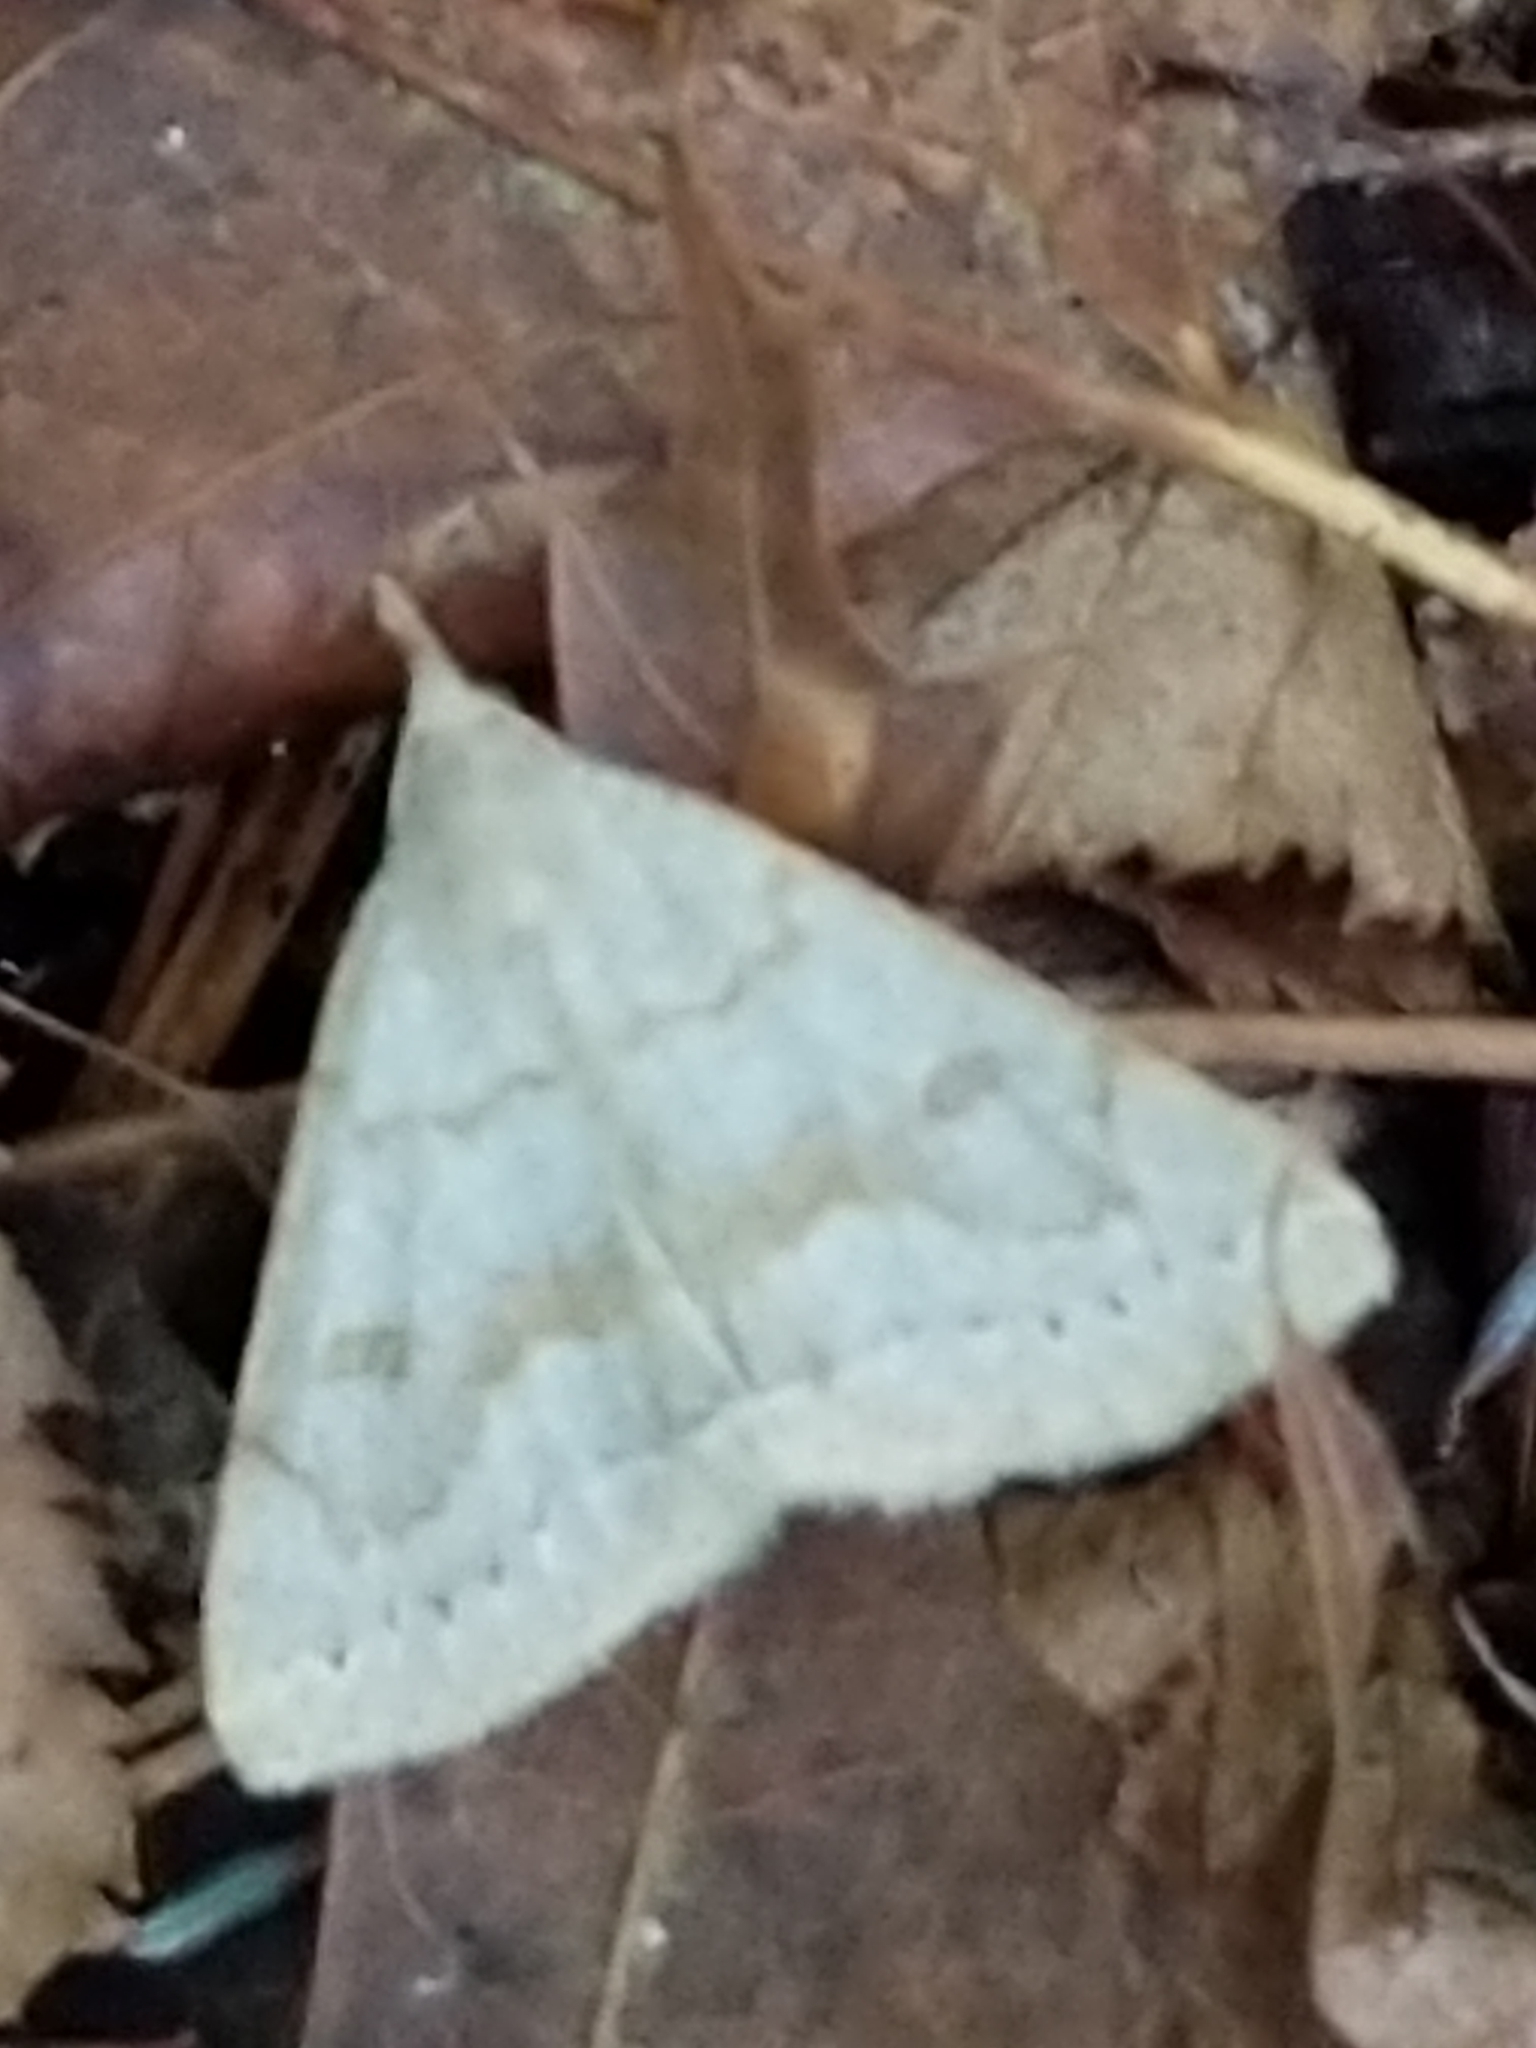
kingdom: Animalia
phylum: Arthropoda
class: Insecta
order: Lepidoptera
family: Erebidae
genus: Macrochilo
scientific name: Macrochilo morbidalis
